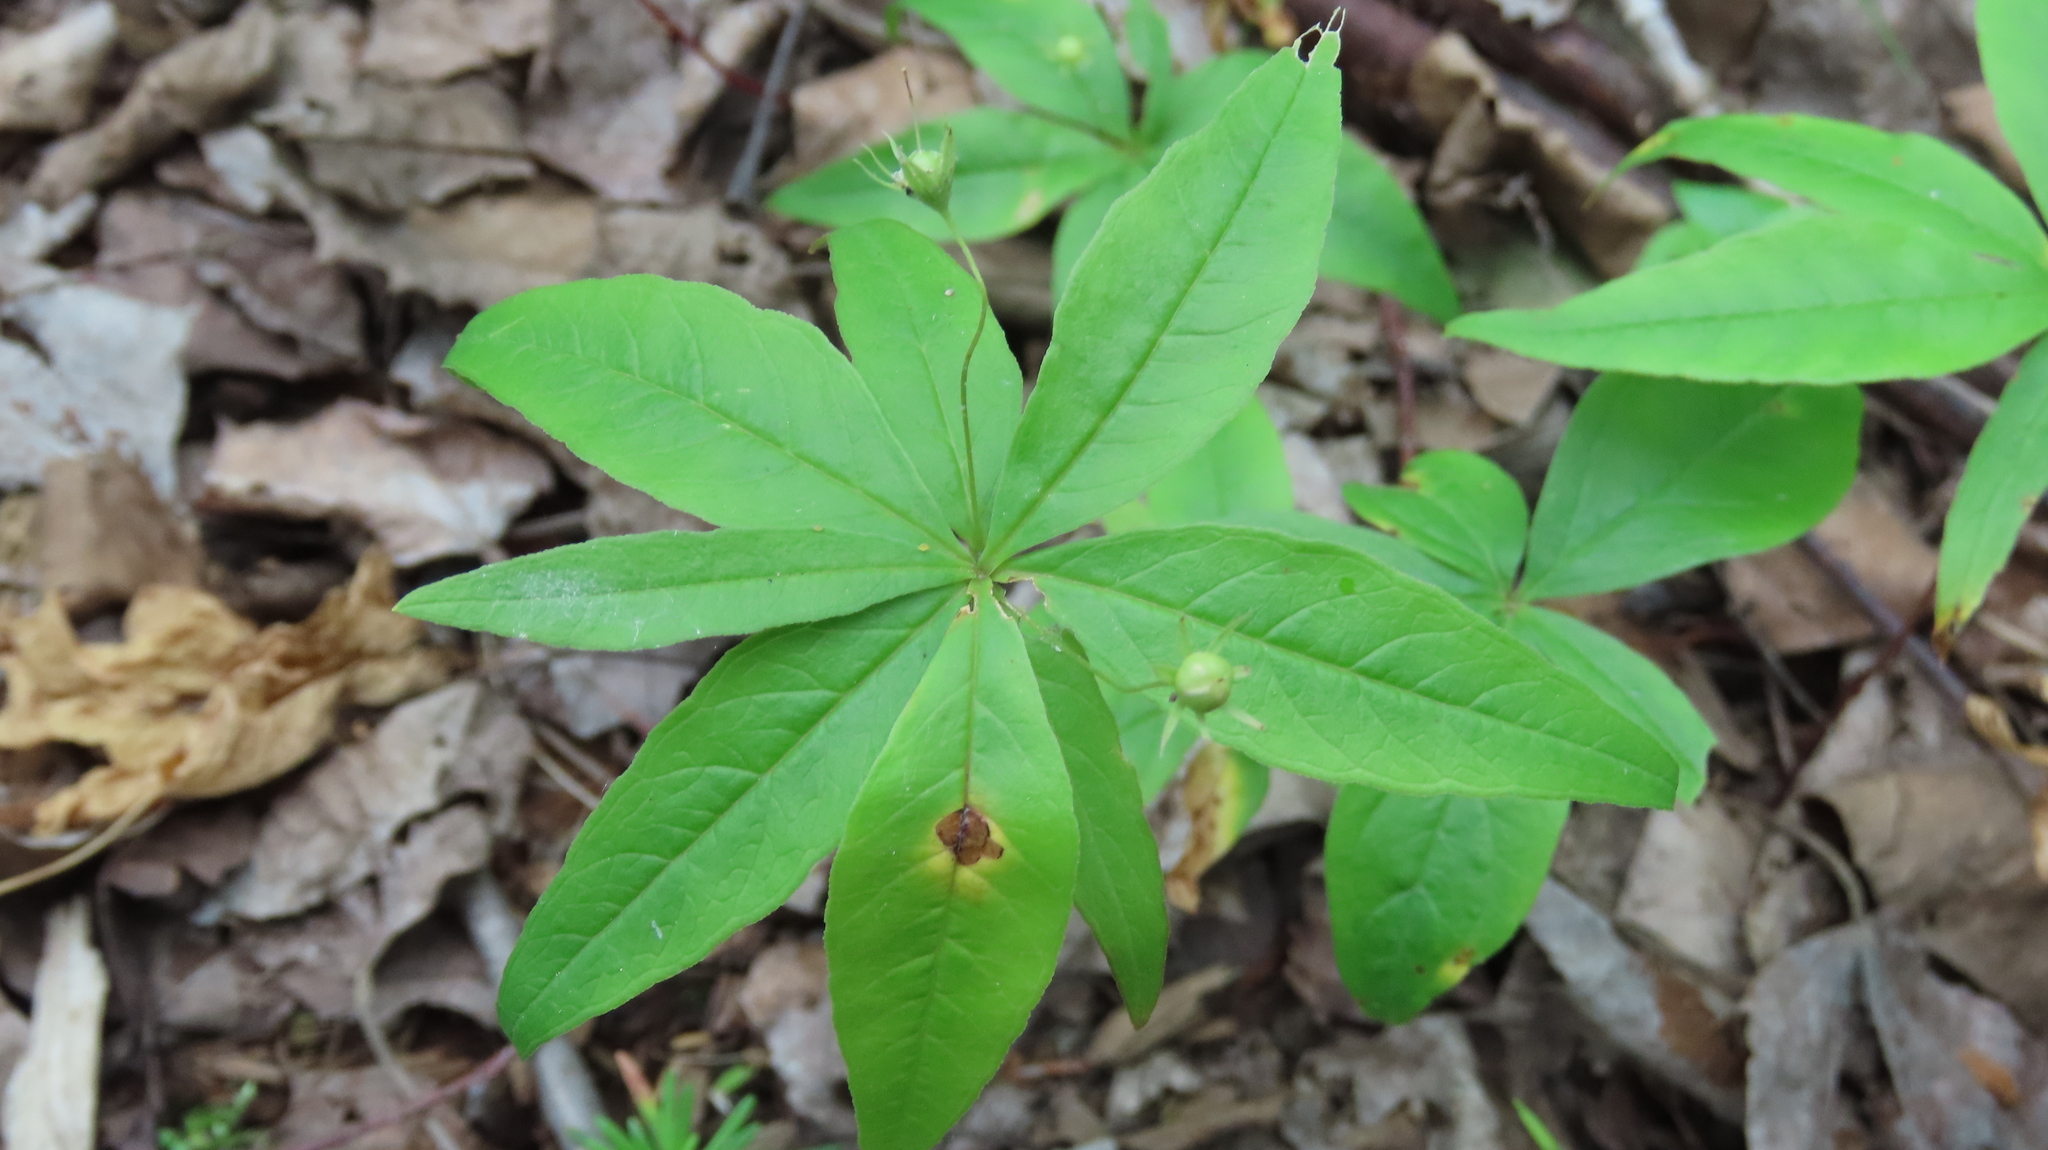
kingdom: Plantae
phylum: Tracheophyta
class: Magnoliopsida
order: Ericales
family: Primulaceae
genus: Lysimachia
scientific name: Lysimachia borealis
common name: American starflower
